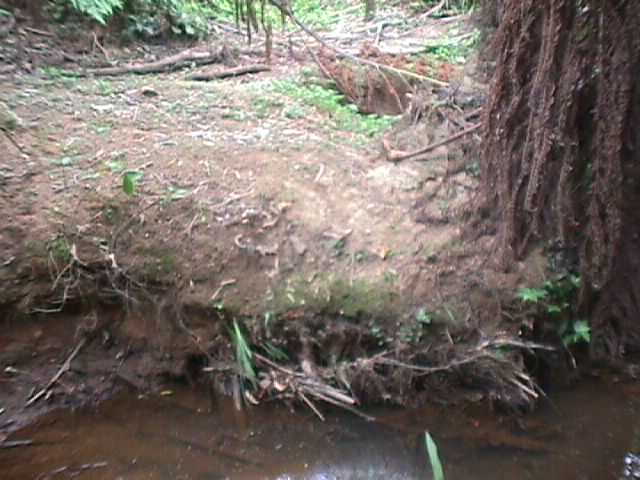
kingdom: Plantae
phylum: Tracheophyta
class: Liliopsida
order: Asparagales
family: Iridaceae
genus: Crocosmia
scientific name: Crocosmia crocosmiiflora
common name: Montbretia
